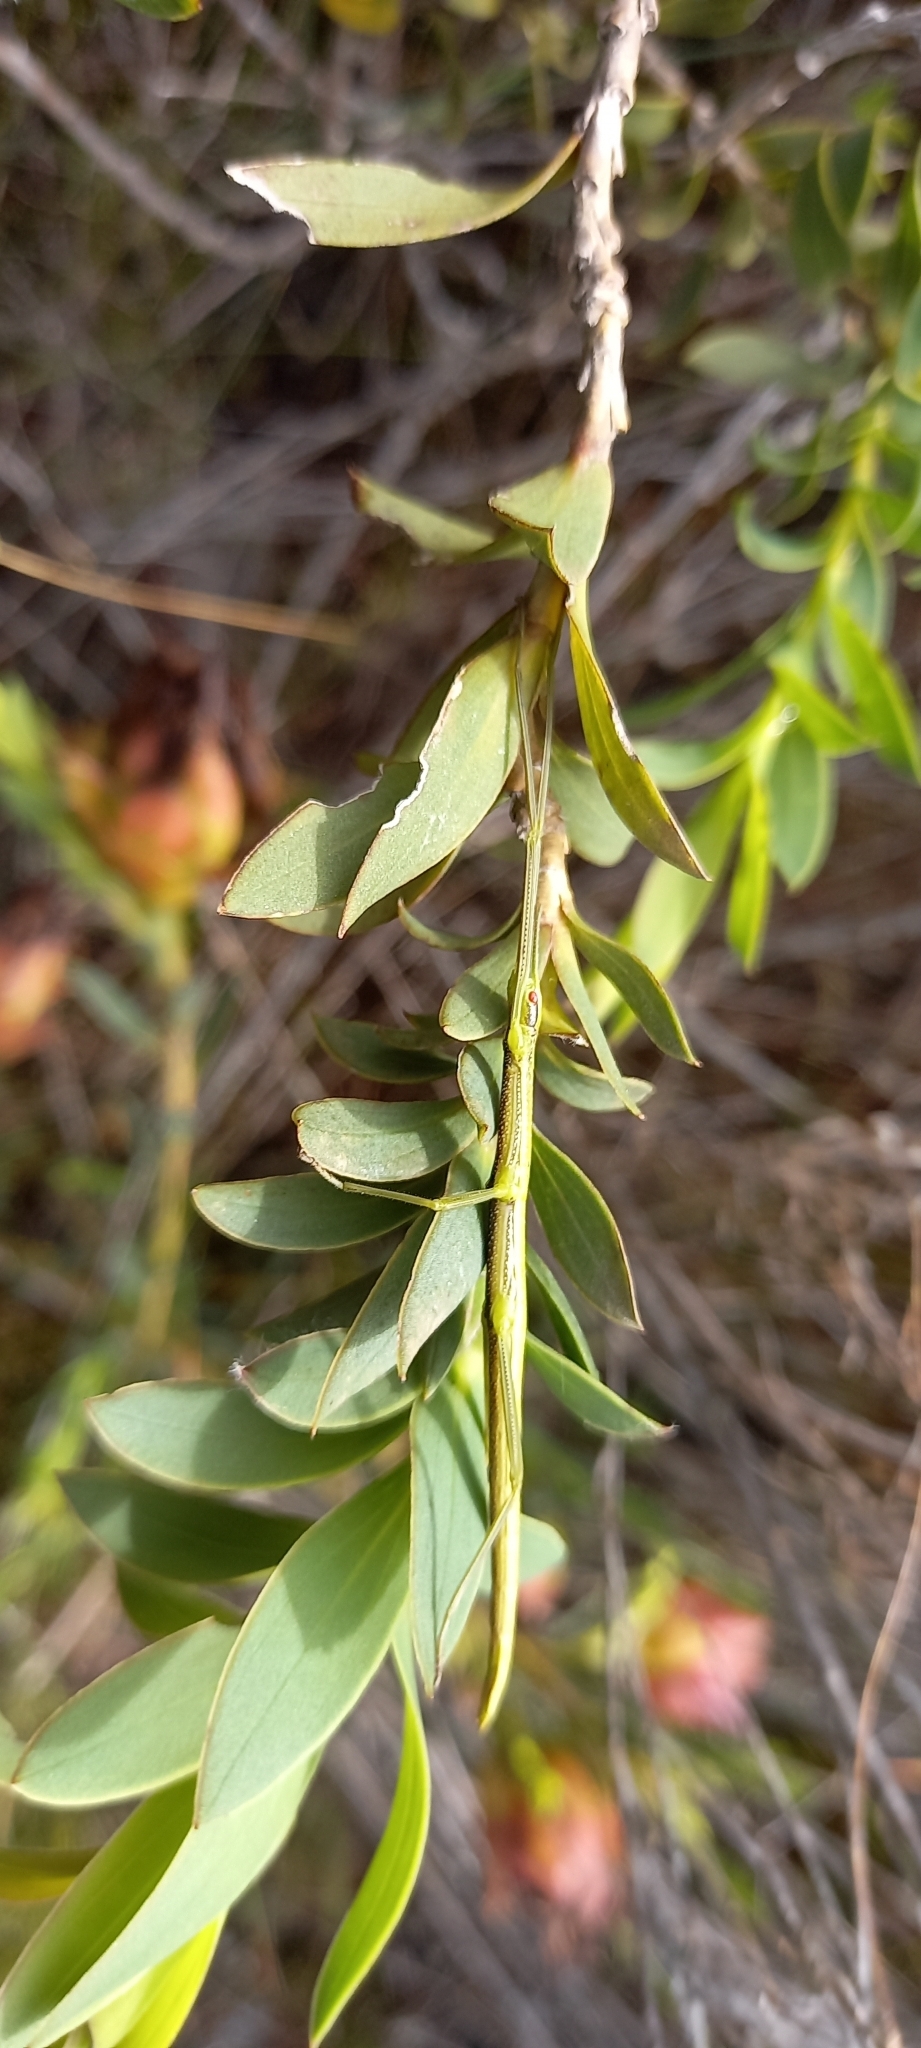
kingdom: Animalia
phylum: Arthropoda
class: Insecta
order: Phasmida
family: Bacillidae
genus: Macynia
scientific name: Macynia labiata
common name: Thunberg's stick insect
